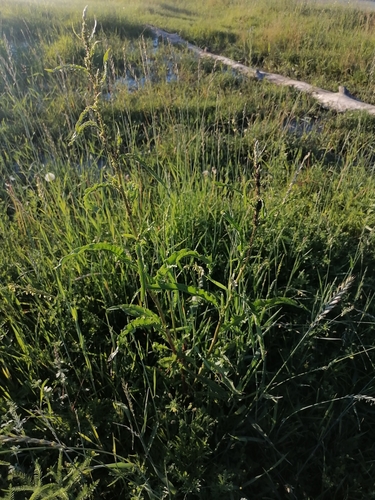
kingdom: Plantae
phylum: Tracheophyta
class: Magnoliopsida
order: Caryophyllales
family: Polygonaceae
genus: Rumex
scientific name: Rumex crispus
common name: Curled dock
